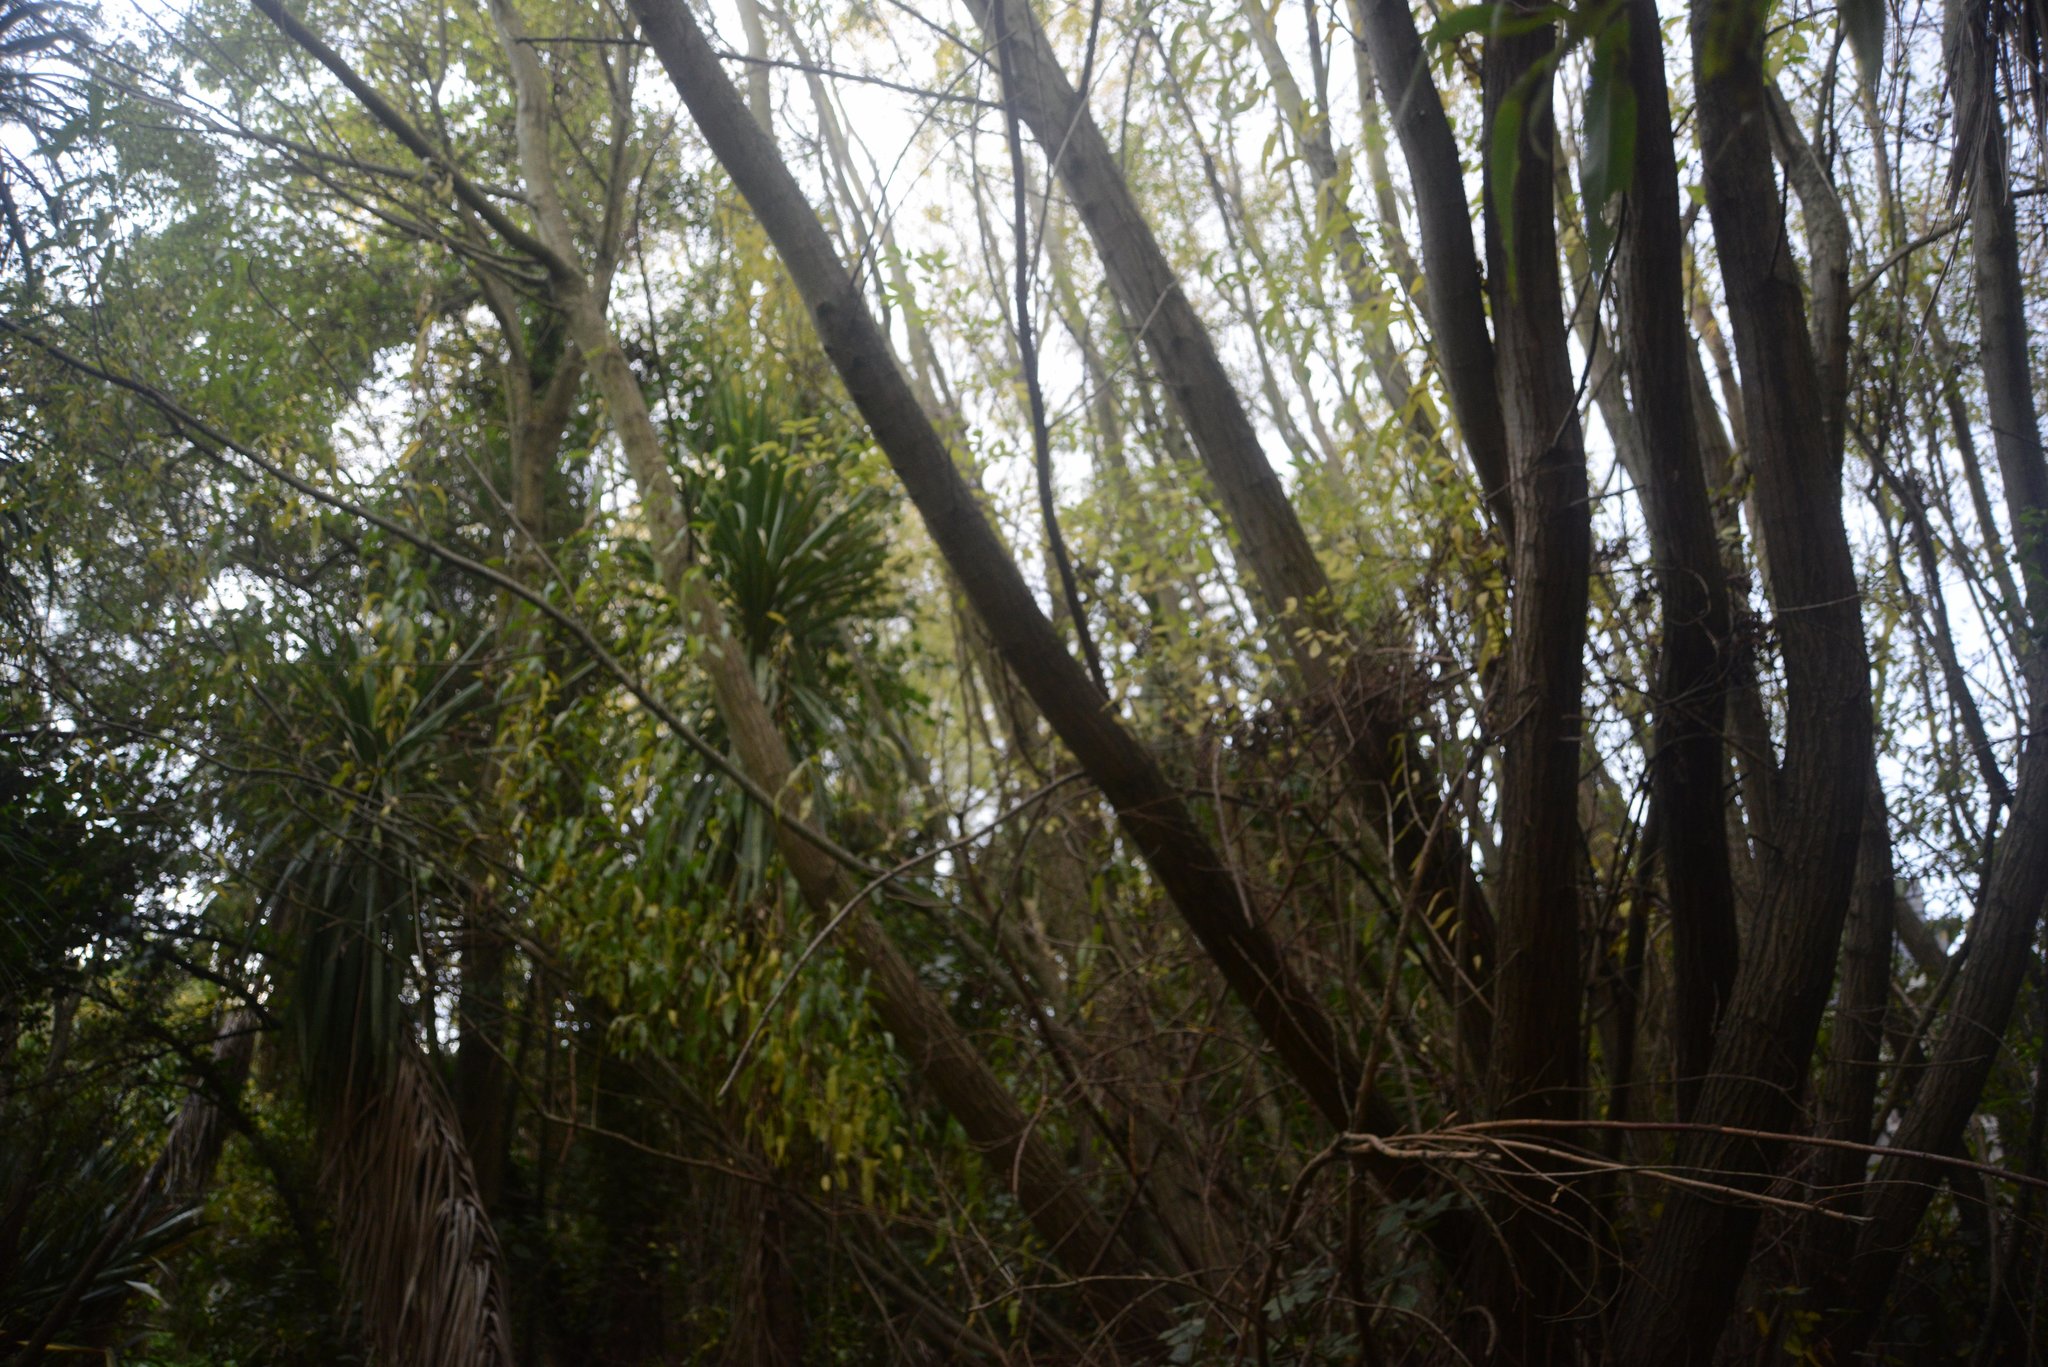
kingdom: Plantae
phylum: Tracheophyta
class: Magnoliopsida
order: Malpighiales
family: Salicaceae
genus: Salix
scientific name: Salix fragilis
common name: Crack willow
